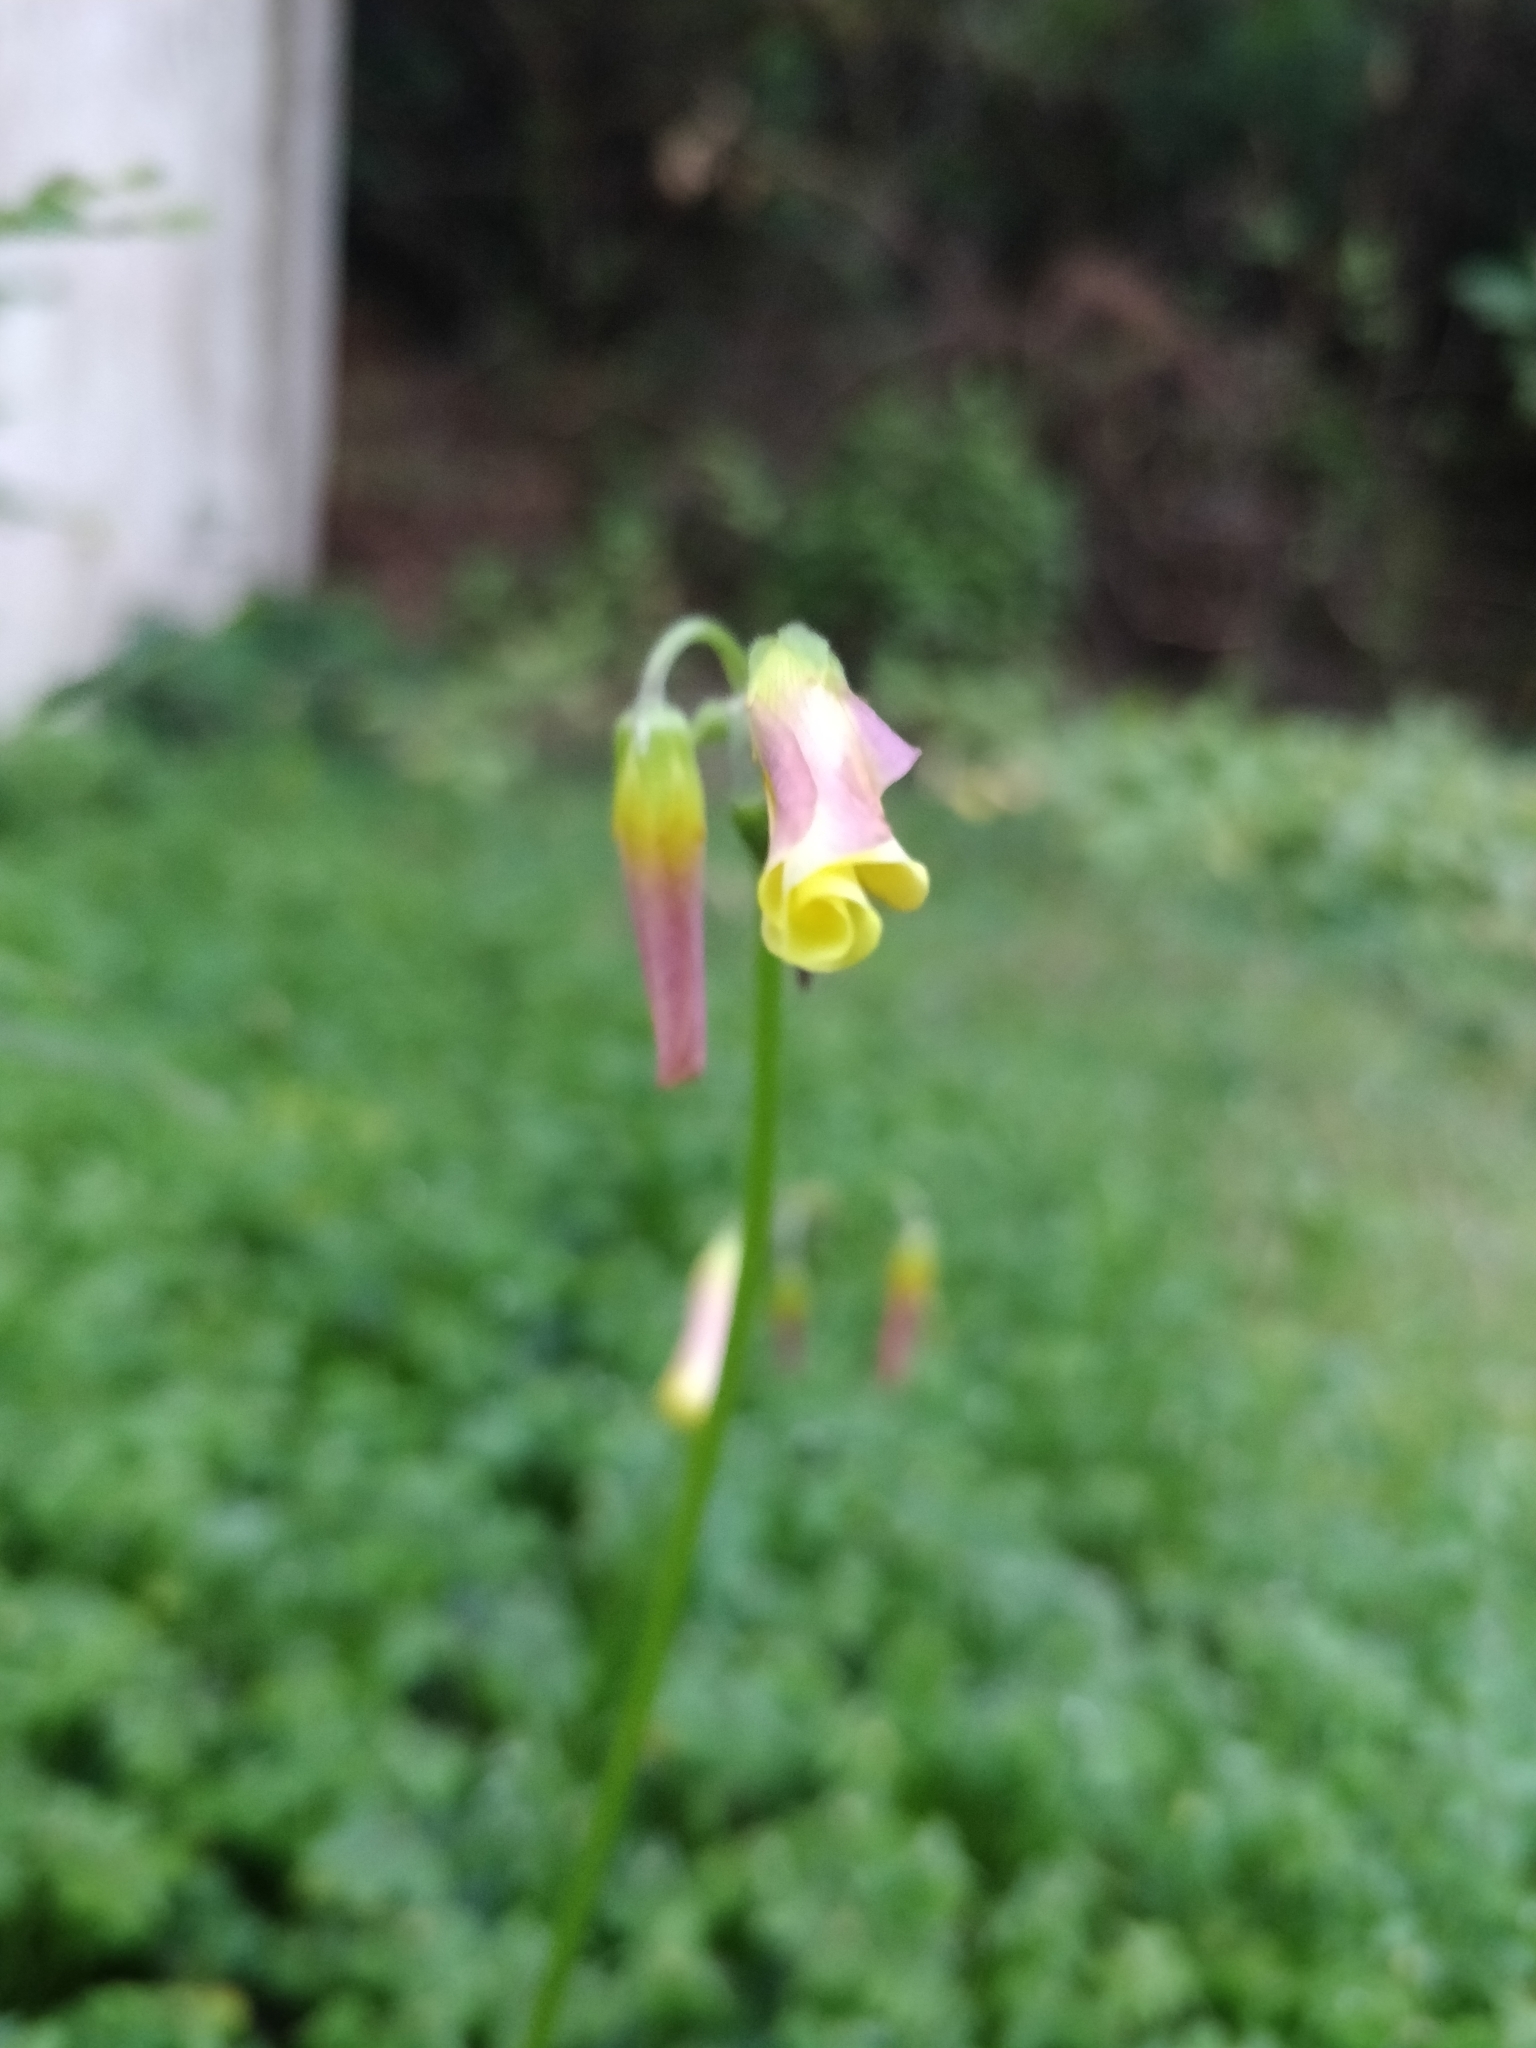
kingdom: Plantae
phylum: Tracheophyta
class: Magnoliopsida
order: Oxalidales
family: Oxalidaceae
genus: Oxalis
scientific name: Oxalis pes-caprae
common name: Bermuda-buttercup
